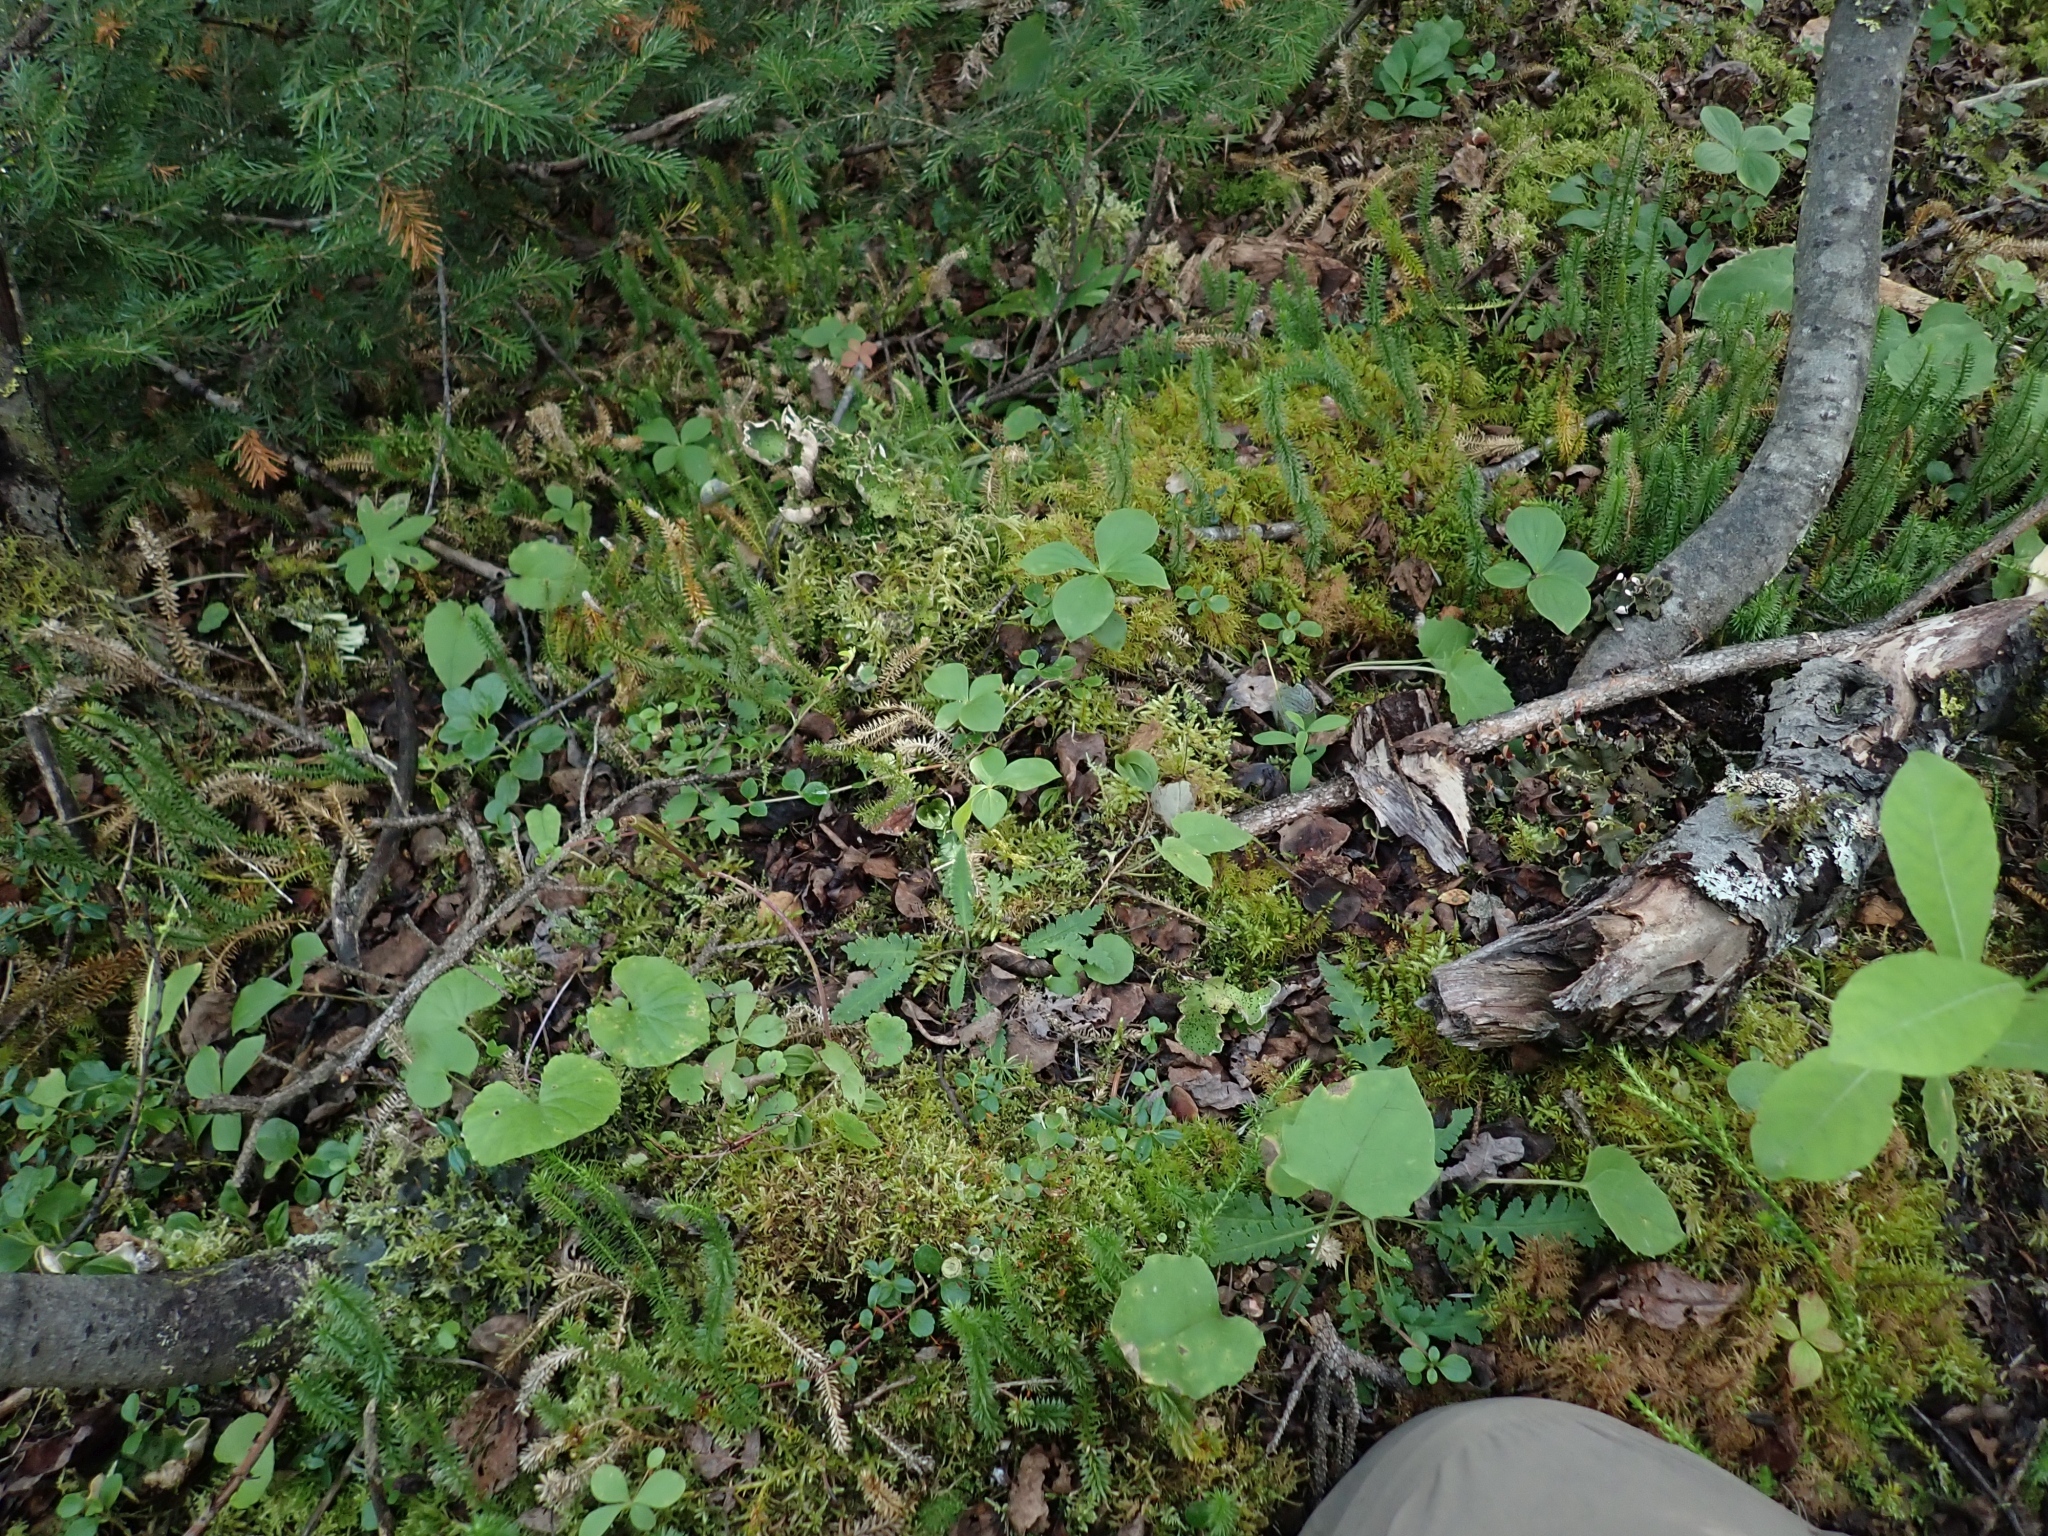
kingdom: Plantae
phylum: Tracheophyta
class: Liliopsida
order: Asparagales
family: Orchidaceae
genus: Calypso
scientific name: Calypso bulbosa
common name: Calypso
